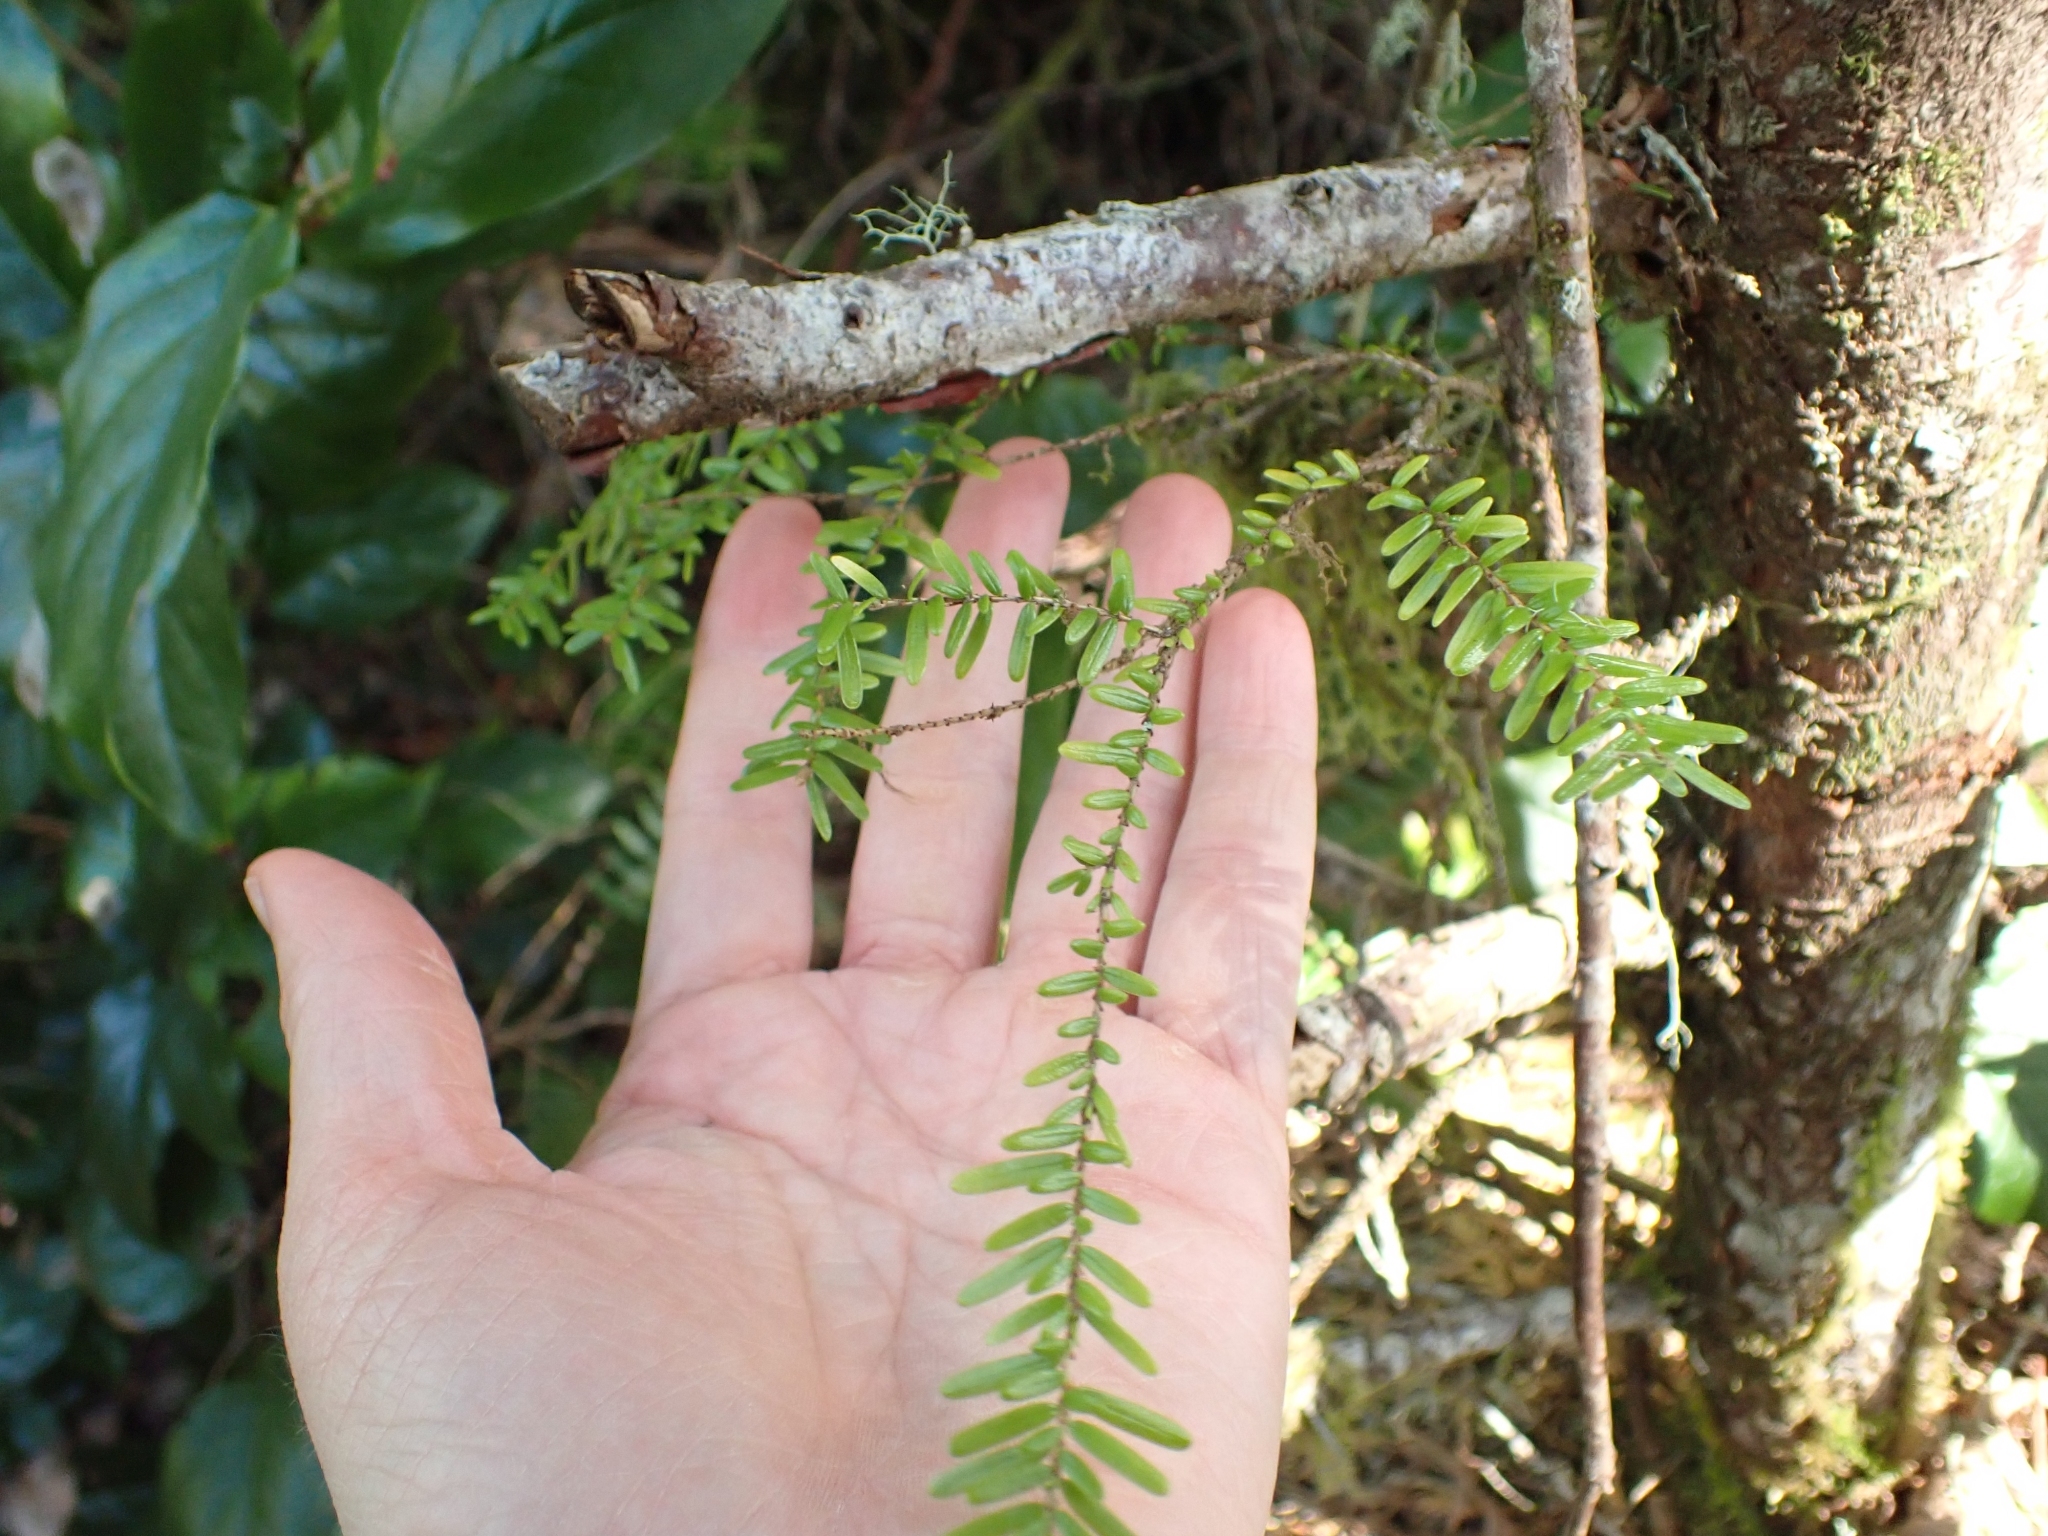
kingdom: Plantae
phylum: Tracheophyta
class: Pinopsida
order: Pinales
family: Pinaceae
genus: Tsuga
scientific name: Tsuga heterophylla
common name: Western hemlock
